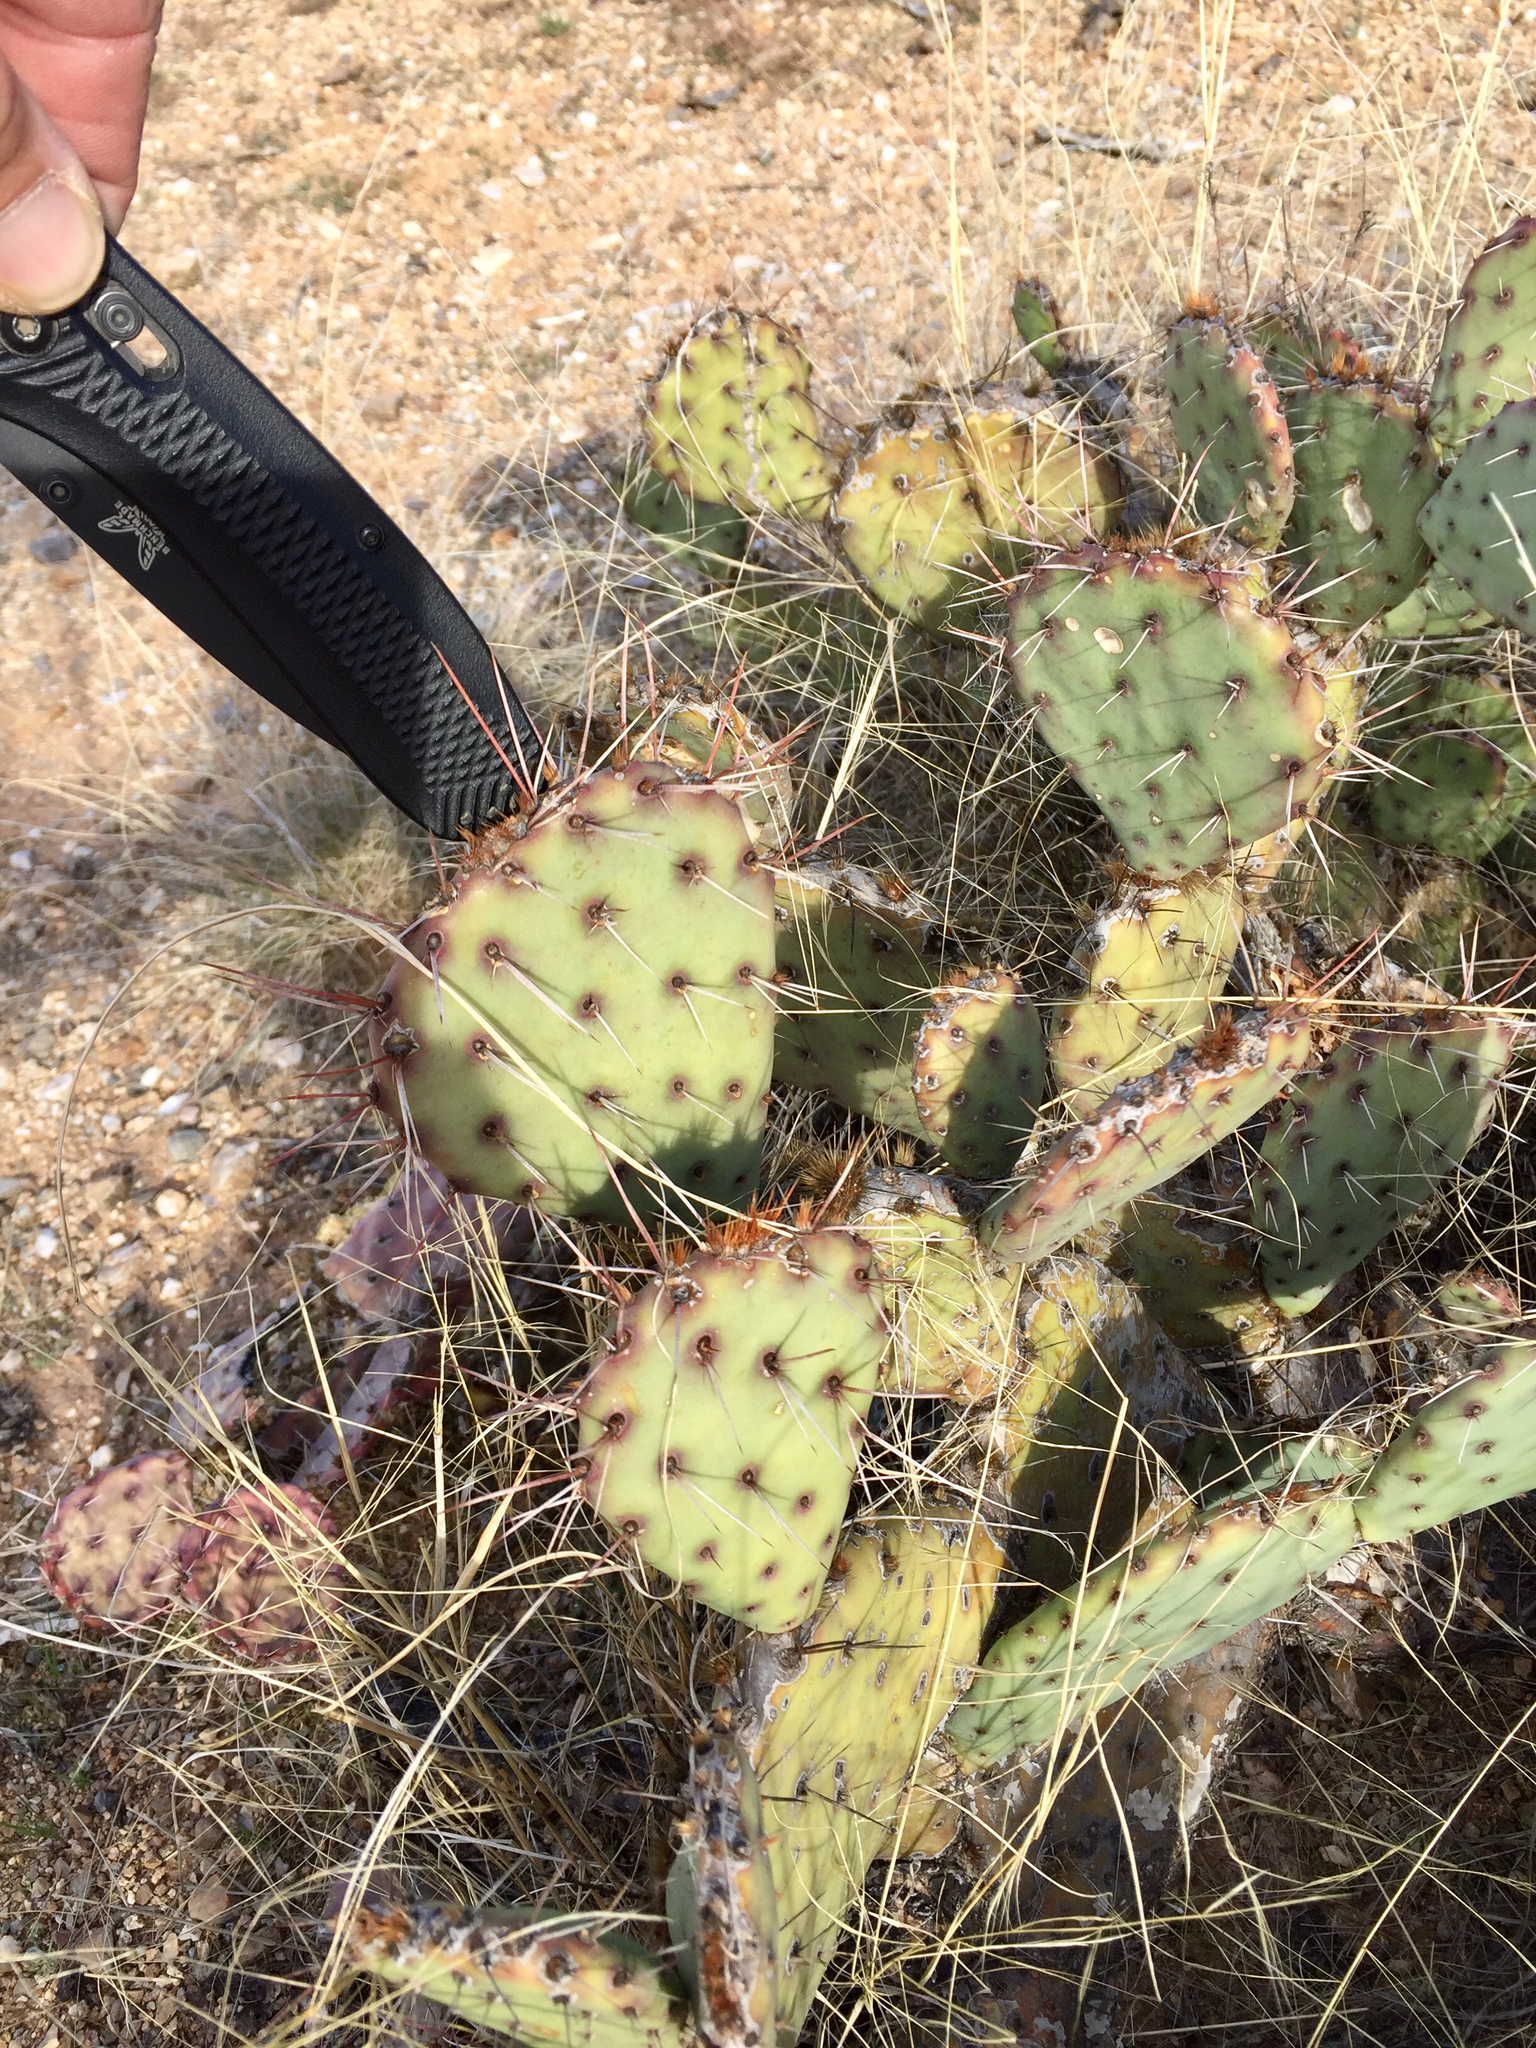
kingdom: Plantae
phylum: Tracheophyta
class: Magnoliopsida
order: Caryophyllales
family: Cactaceae
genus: Opuntia
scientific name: Opuntia phaeacantha
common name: New mexico prickly-pear
